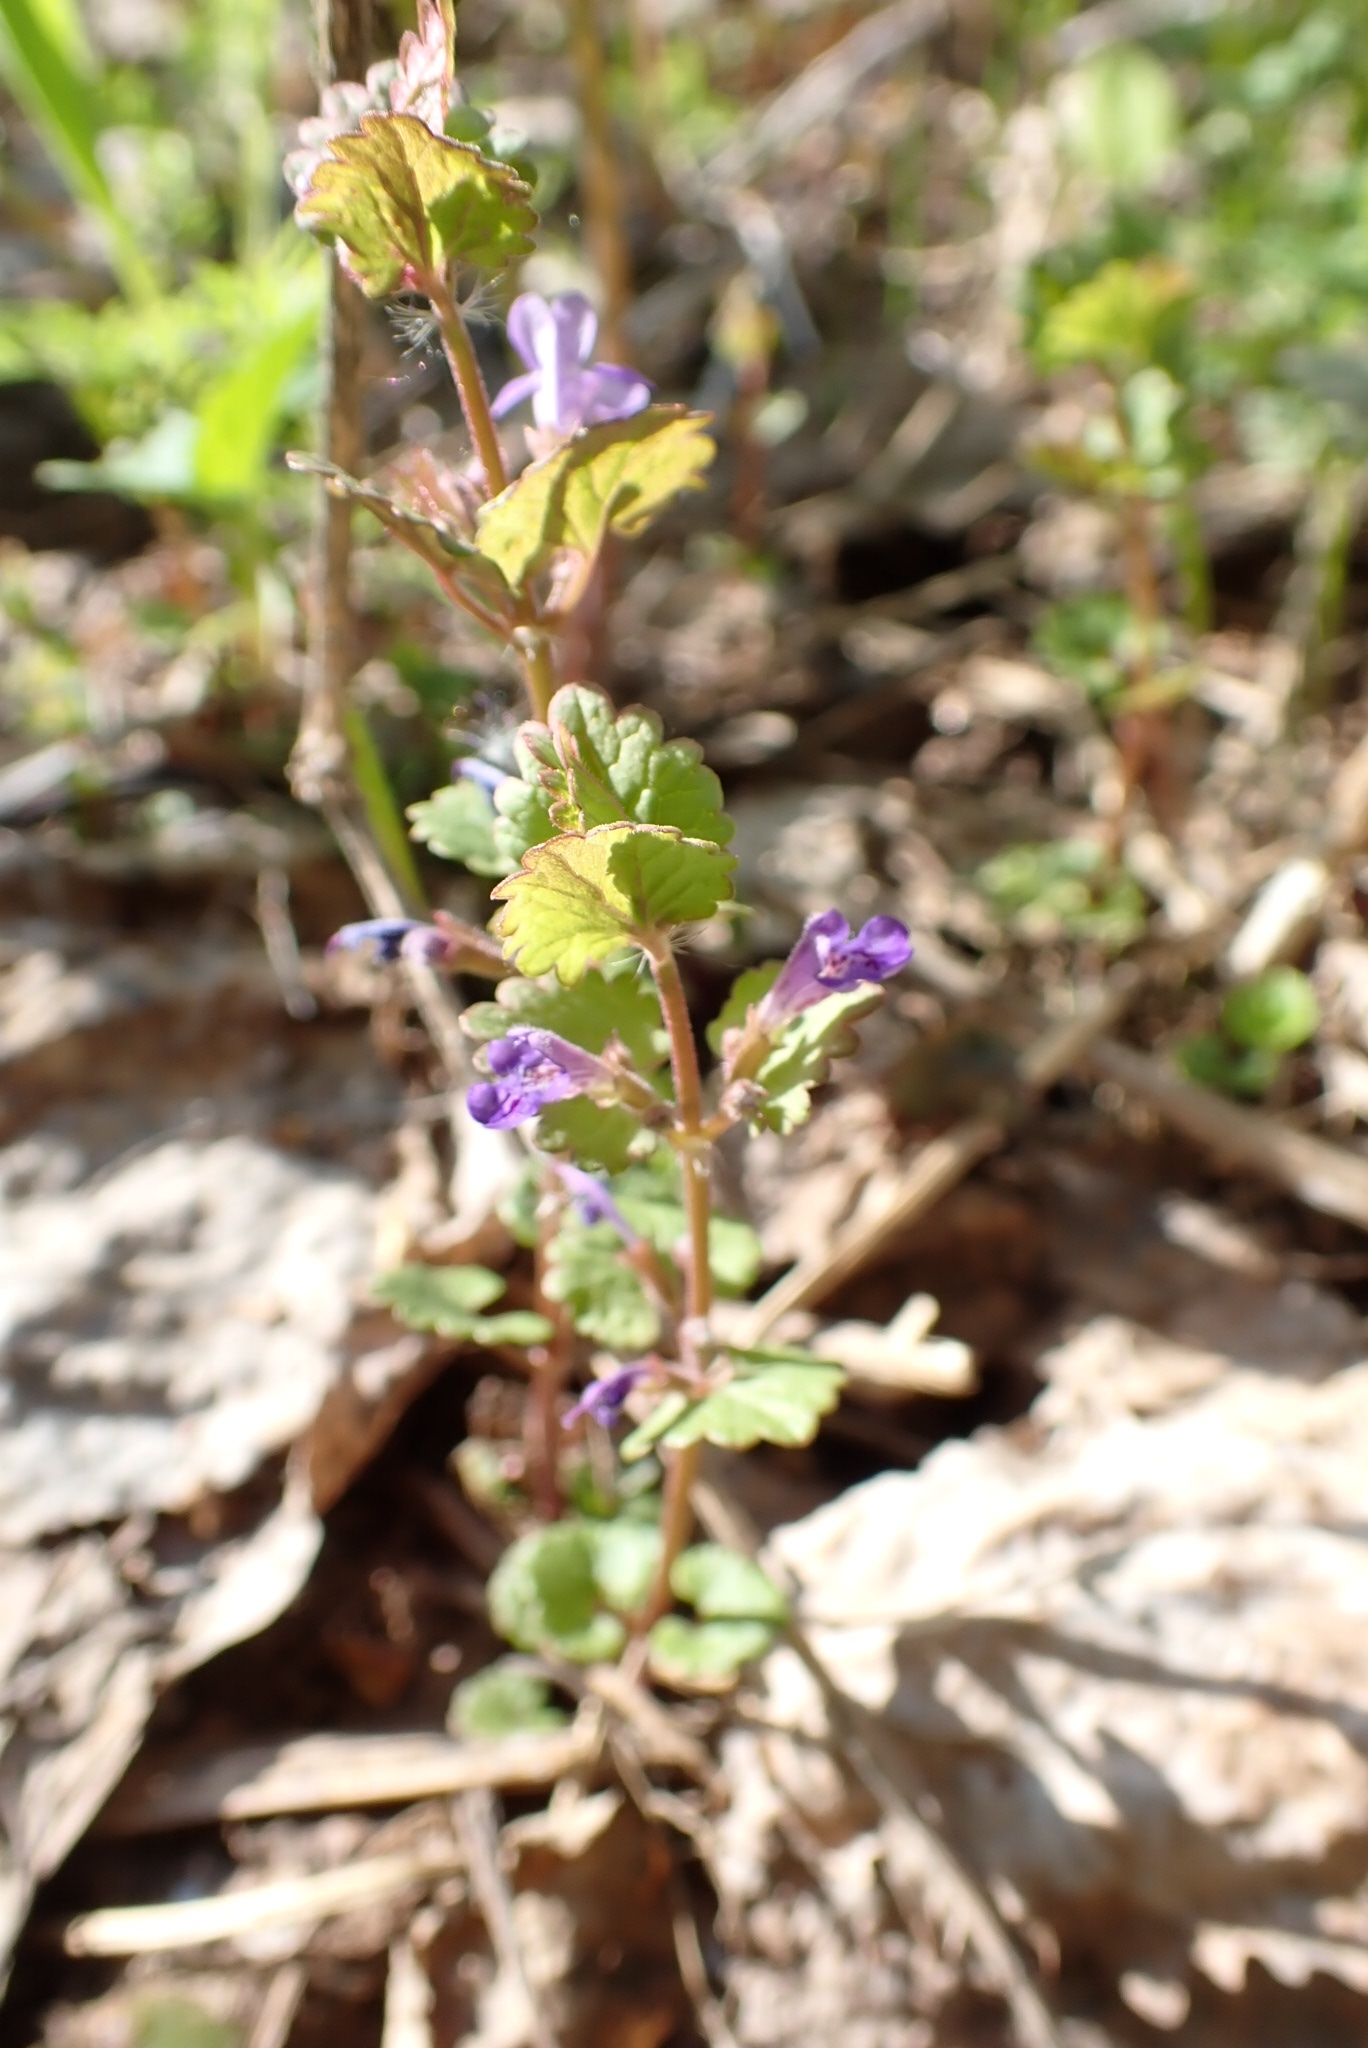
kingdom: Plantae
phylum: Tracheophyta
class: Magnoliopsida
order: Lamiales
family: Lamiaceae
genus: Glechoma
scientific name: Glechoma hederacea
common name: Ground ivy
